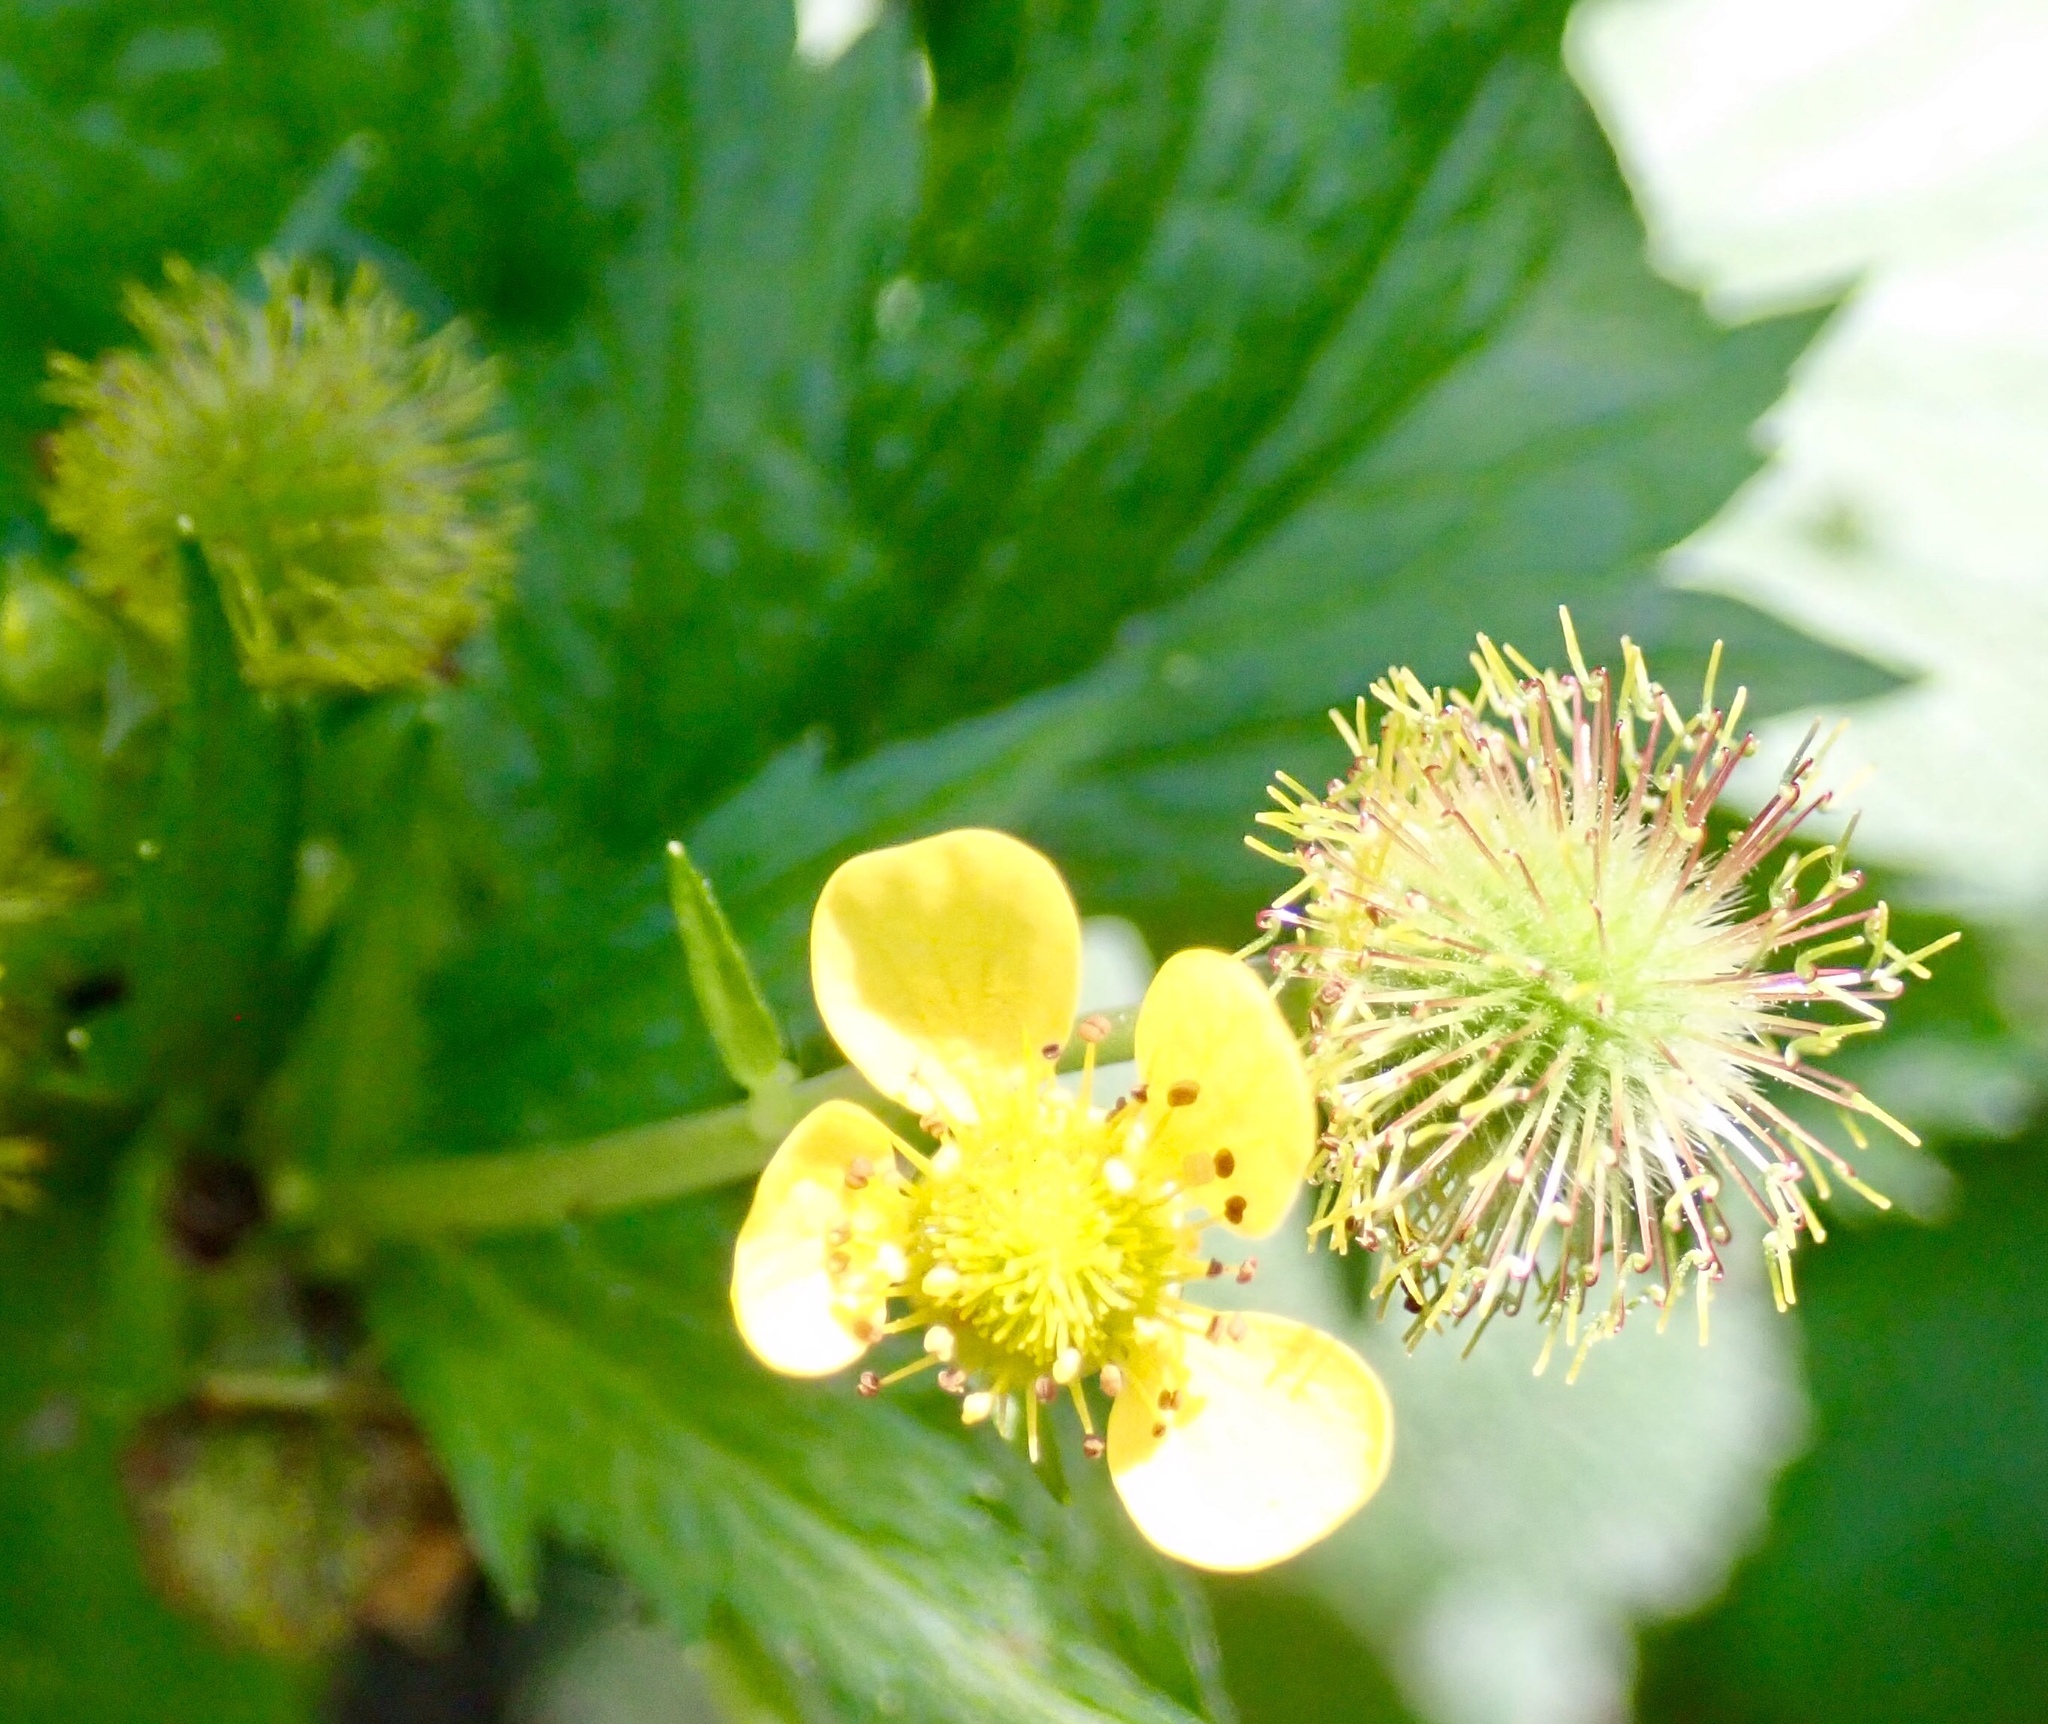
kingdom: Plantae
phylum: Tracheophyta
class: Magnoliopsida
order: Rosales
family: Rosaceae
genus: Geum
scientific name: Geum macrophyllum
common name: Large-leaved avens
